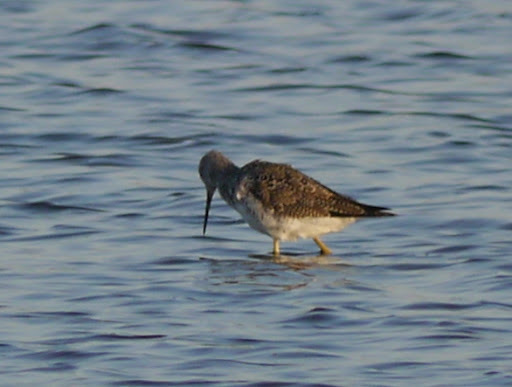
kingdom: Animalia
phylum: Chordata
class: Aves
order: Charadriiformes
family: Scolopacidae
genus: Tringa
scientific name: Tringa flavipes
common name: Lesser yellowlegs
